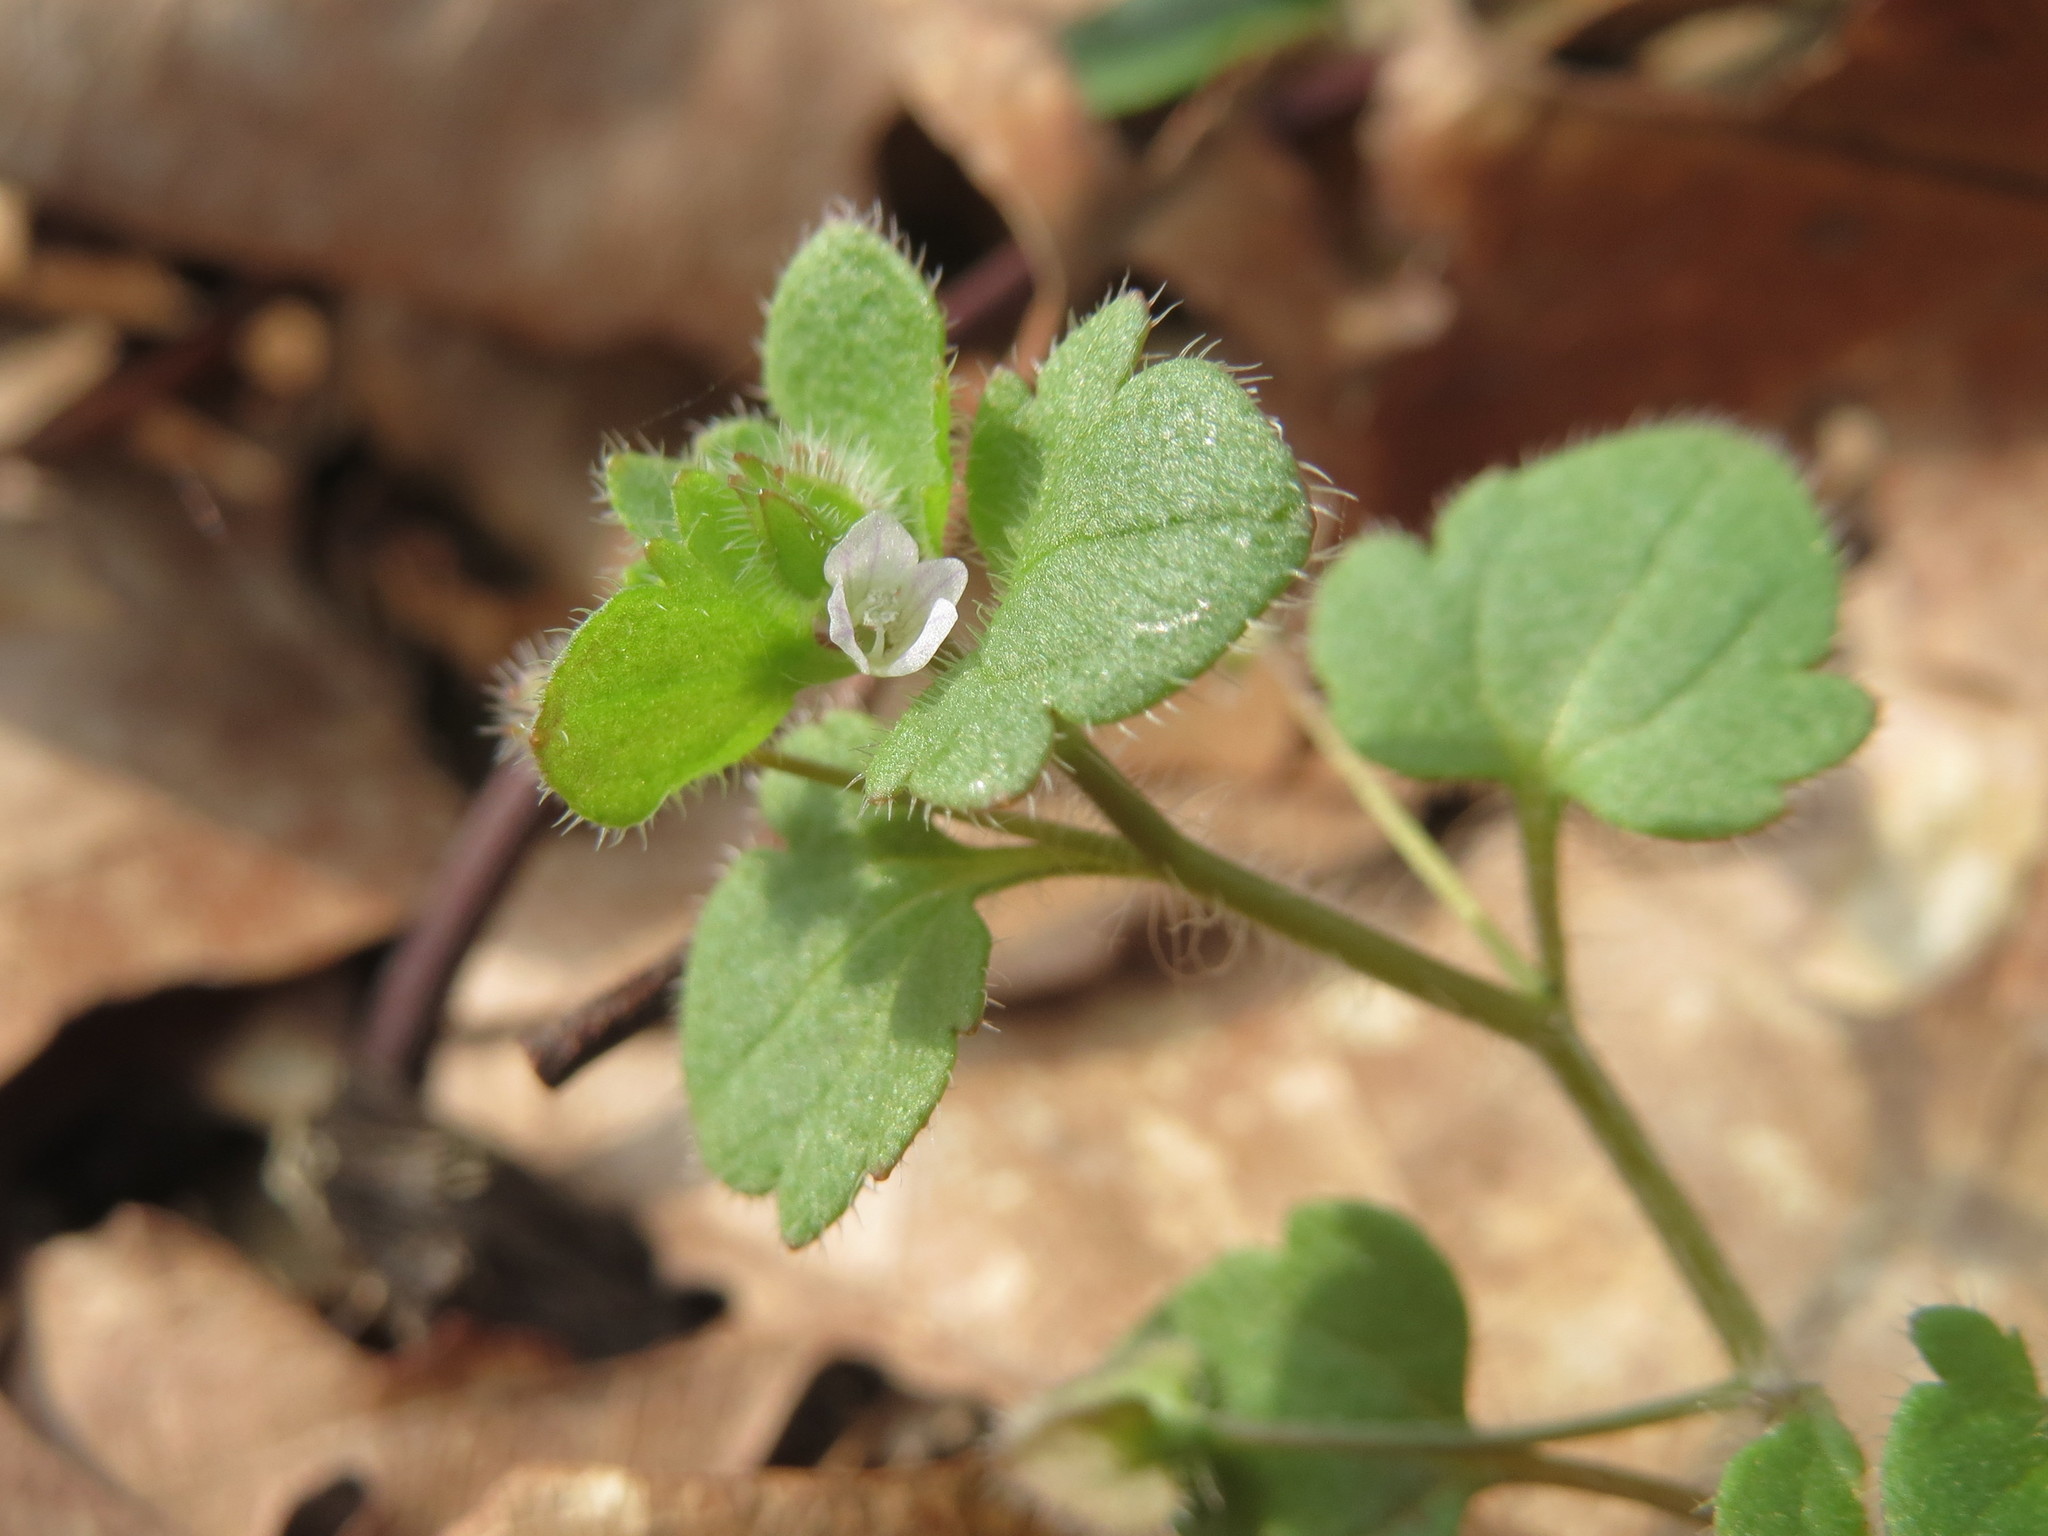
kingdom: Plantae
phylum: Tracheophyta
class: Magnoliopsida
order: Lamiales
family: Plantaginaceae
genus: Veronica
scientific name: Veronica hederifolia
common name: Ivy-leaved speedwell
